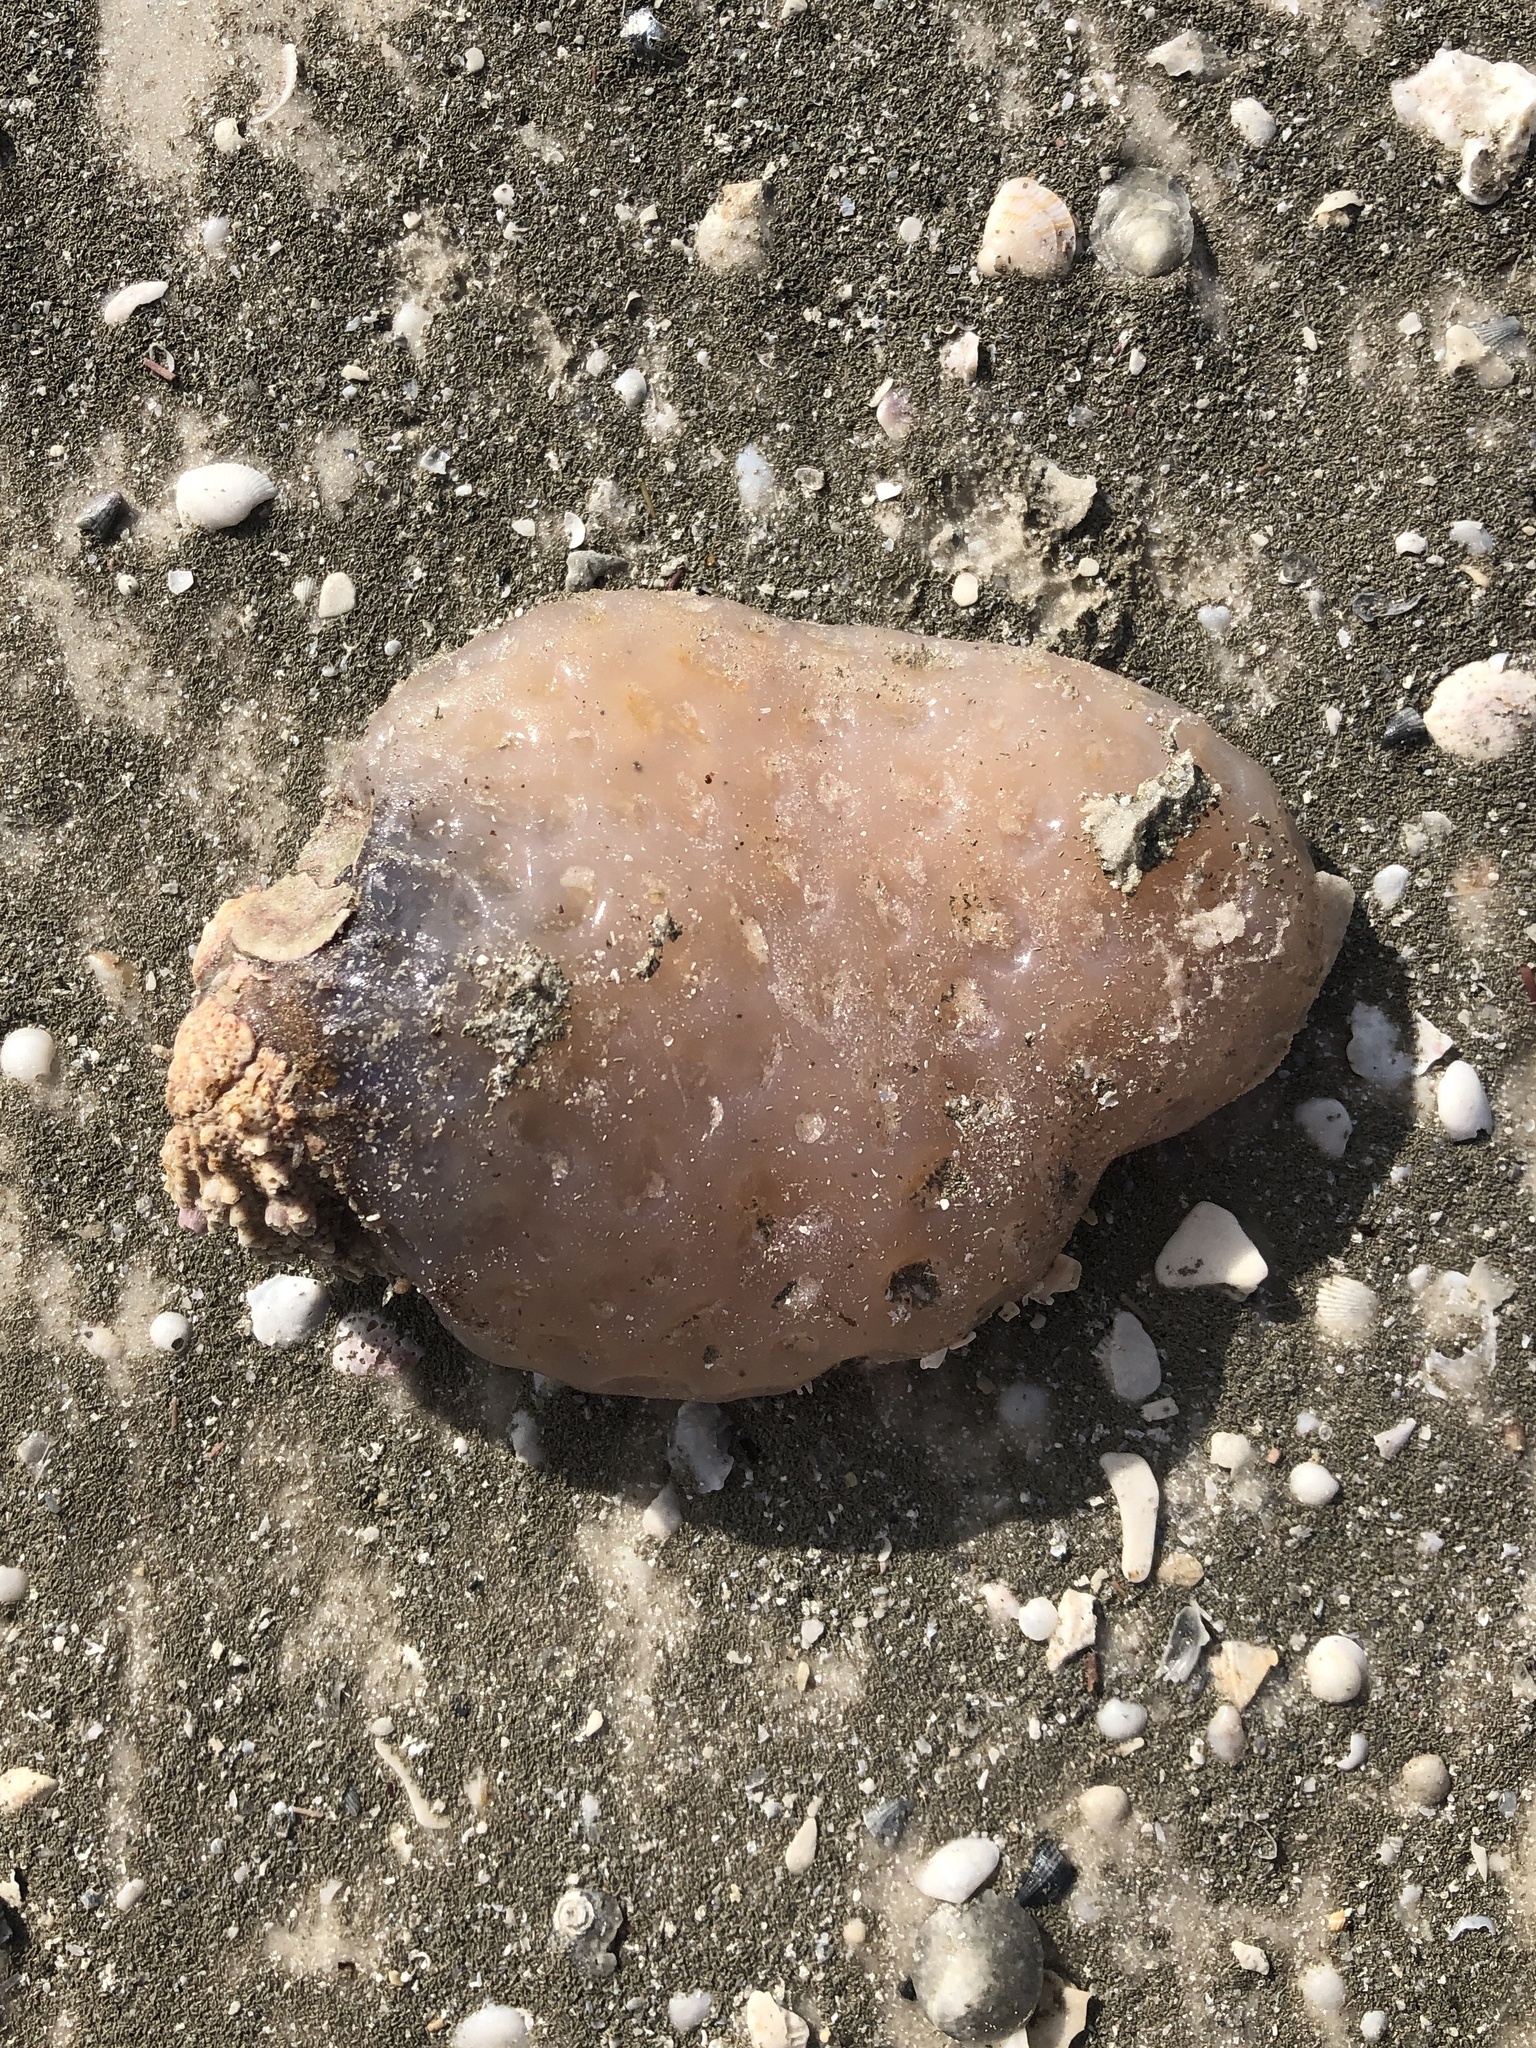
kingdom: Animalia
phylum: Chordata
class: Ascidiacea
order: Aplousobranchia
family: Polyclinidae
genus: Aplidium
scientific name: Aplidium stellatum
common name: Atlantic sea pork
